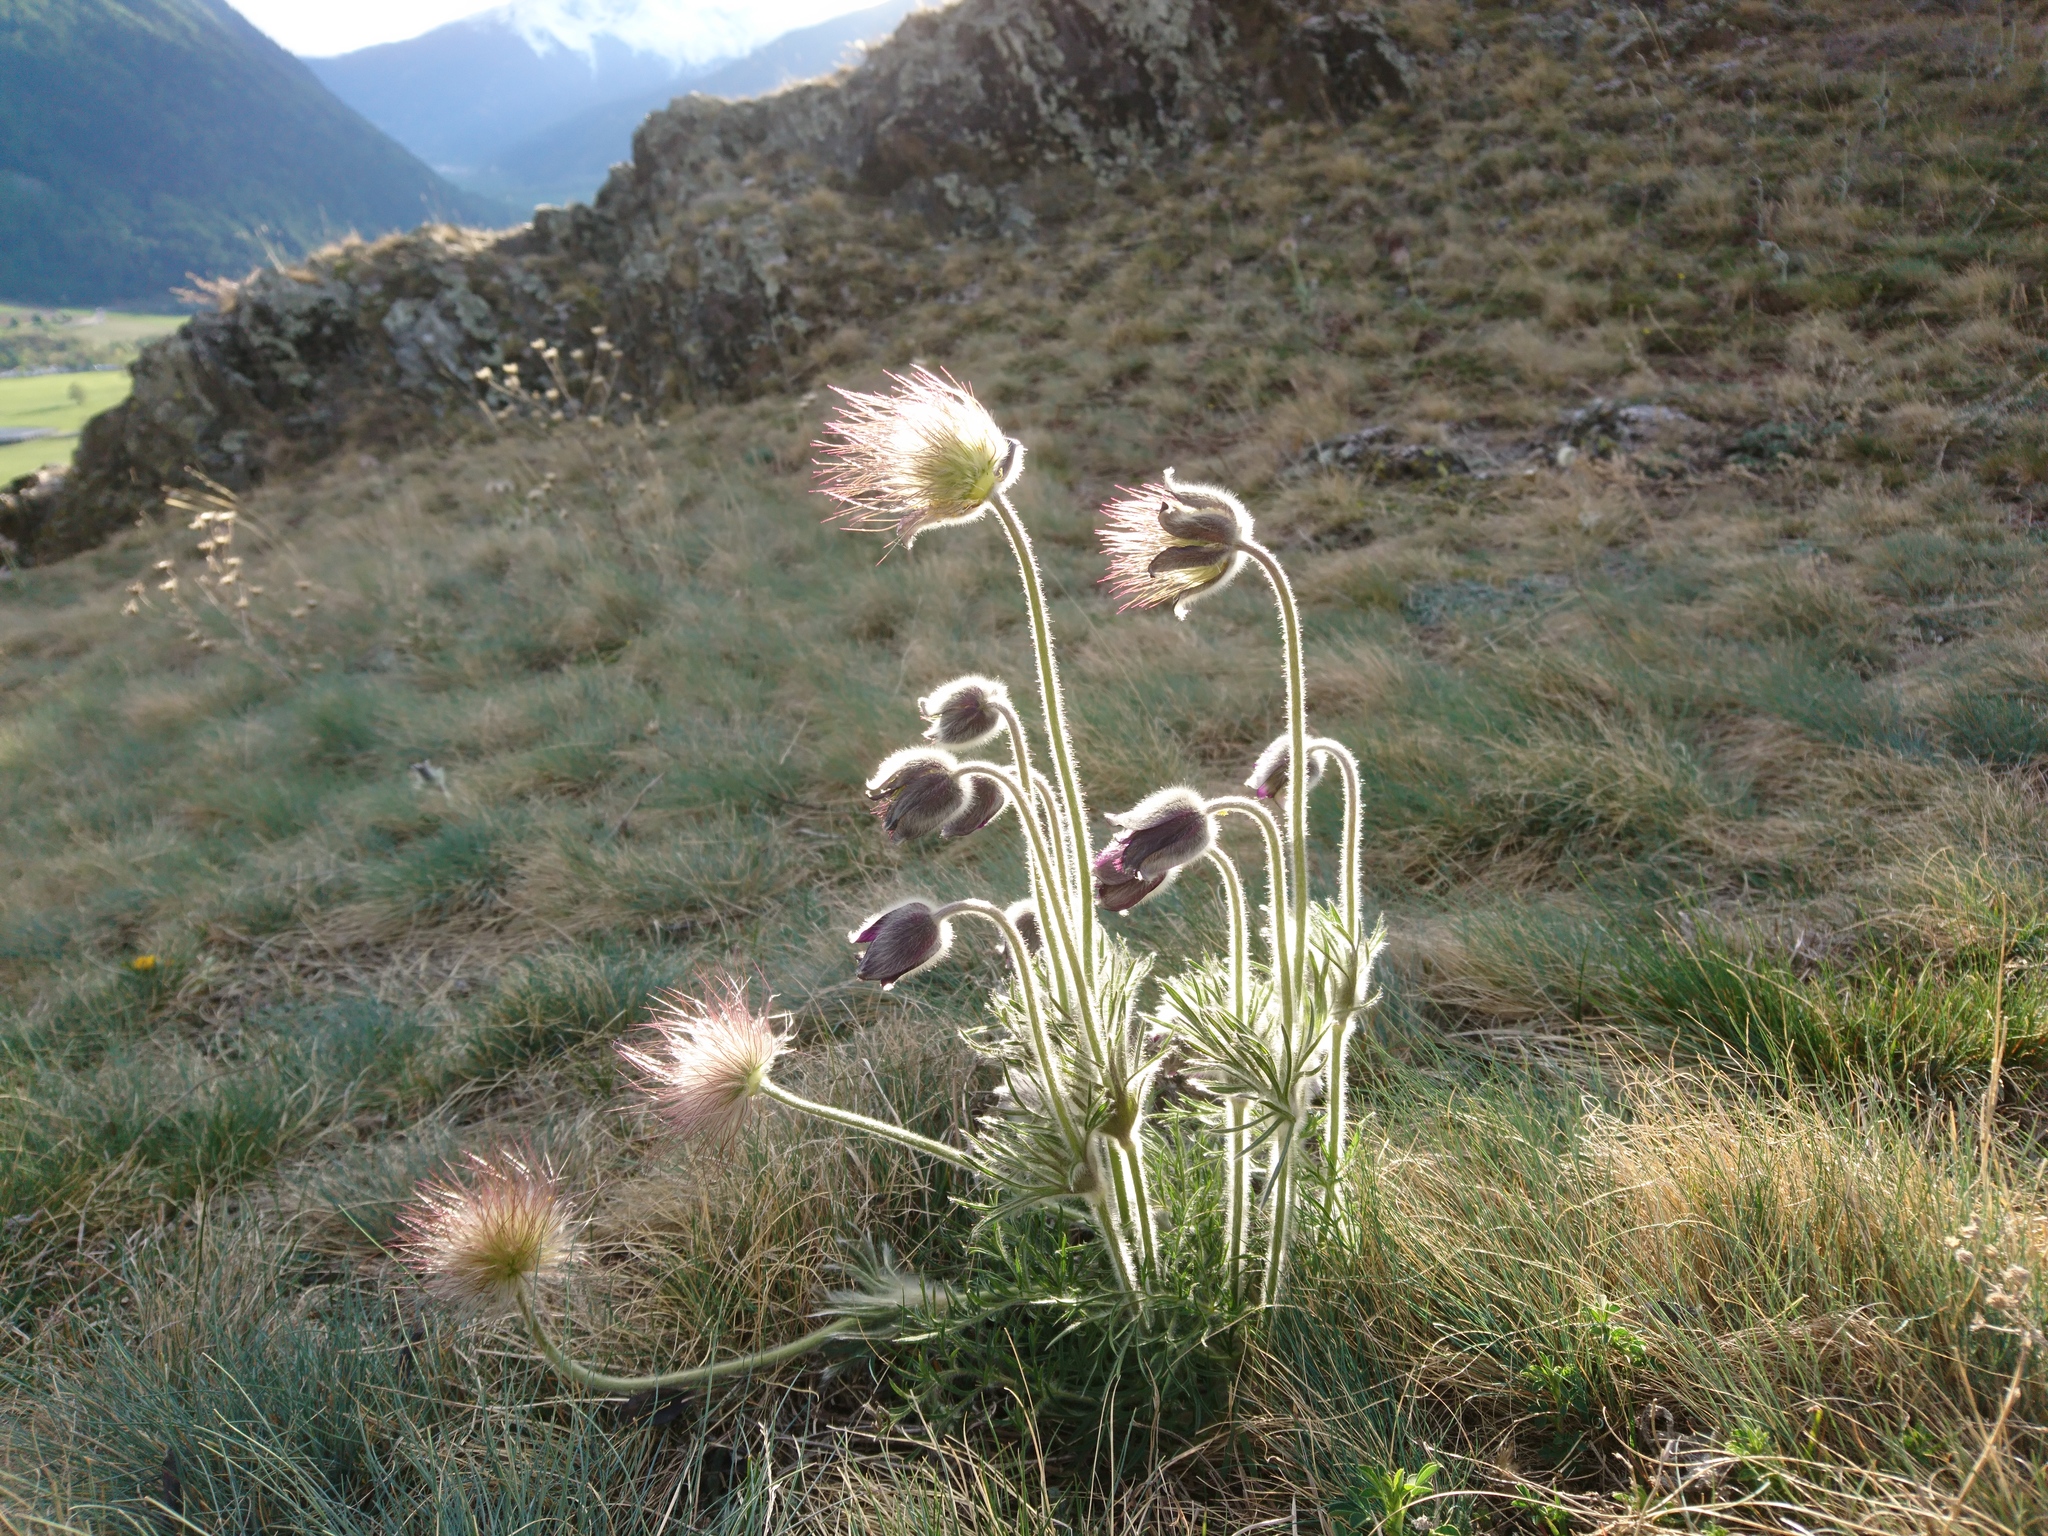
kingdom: Plantae
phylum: Tracheophyta
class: Magnoliopsida
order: Ranunculales
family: Ranunculaceae
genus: Pulsatilla
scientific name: Pulsatilla montana
